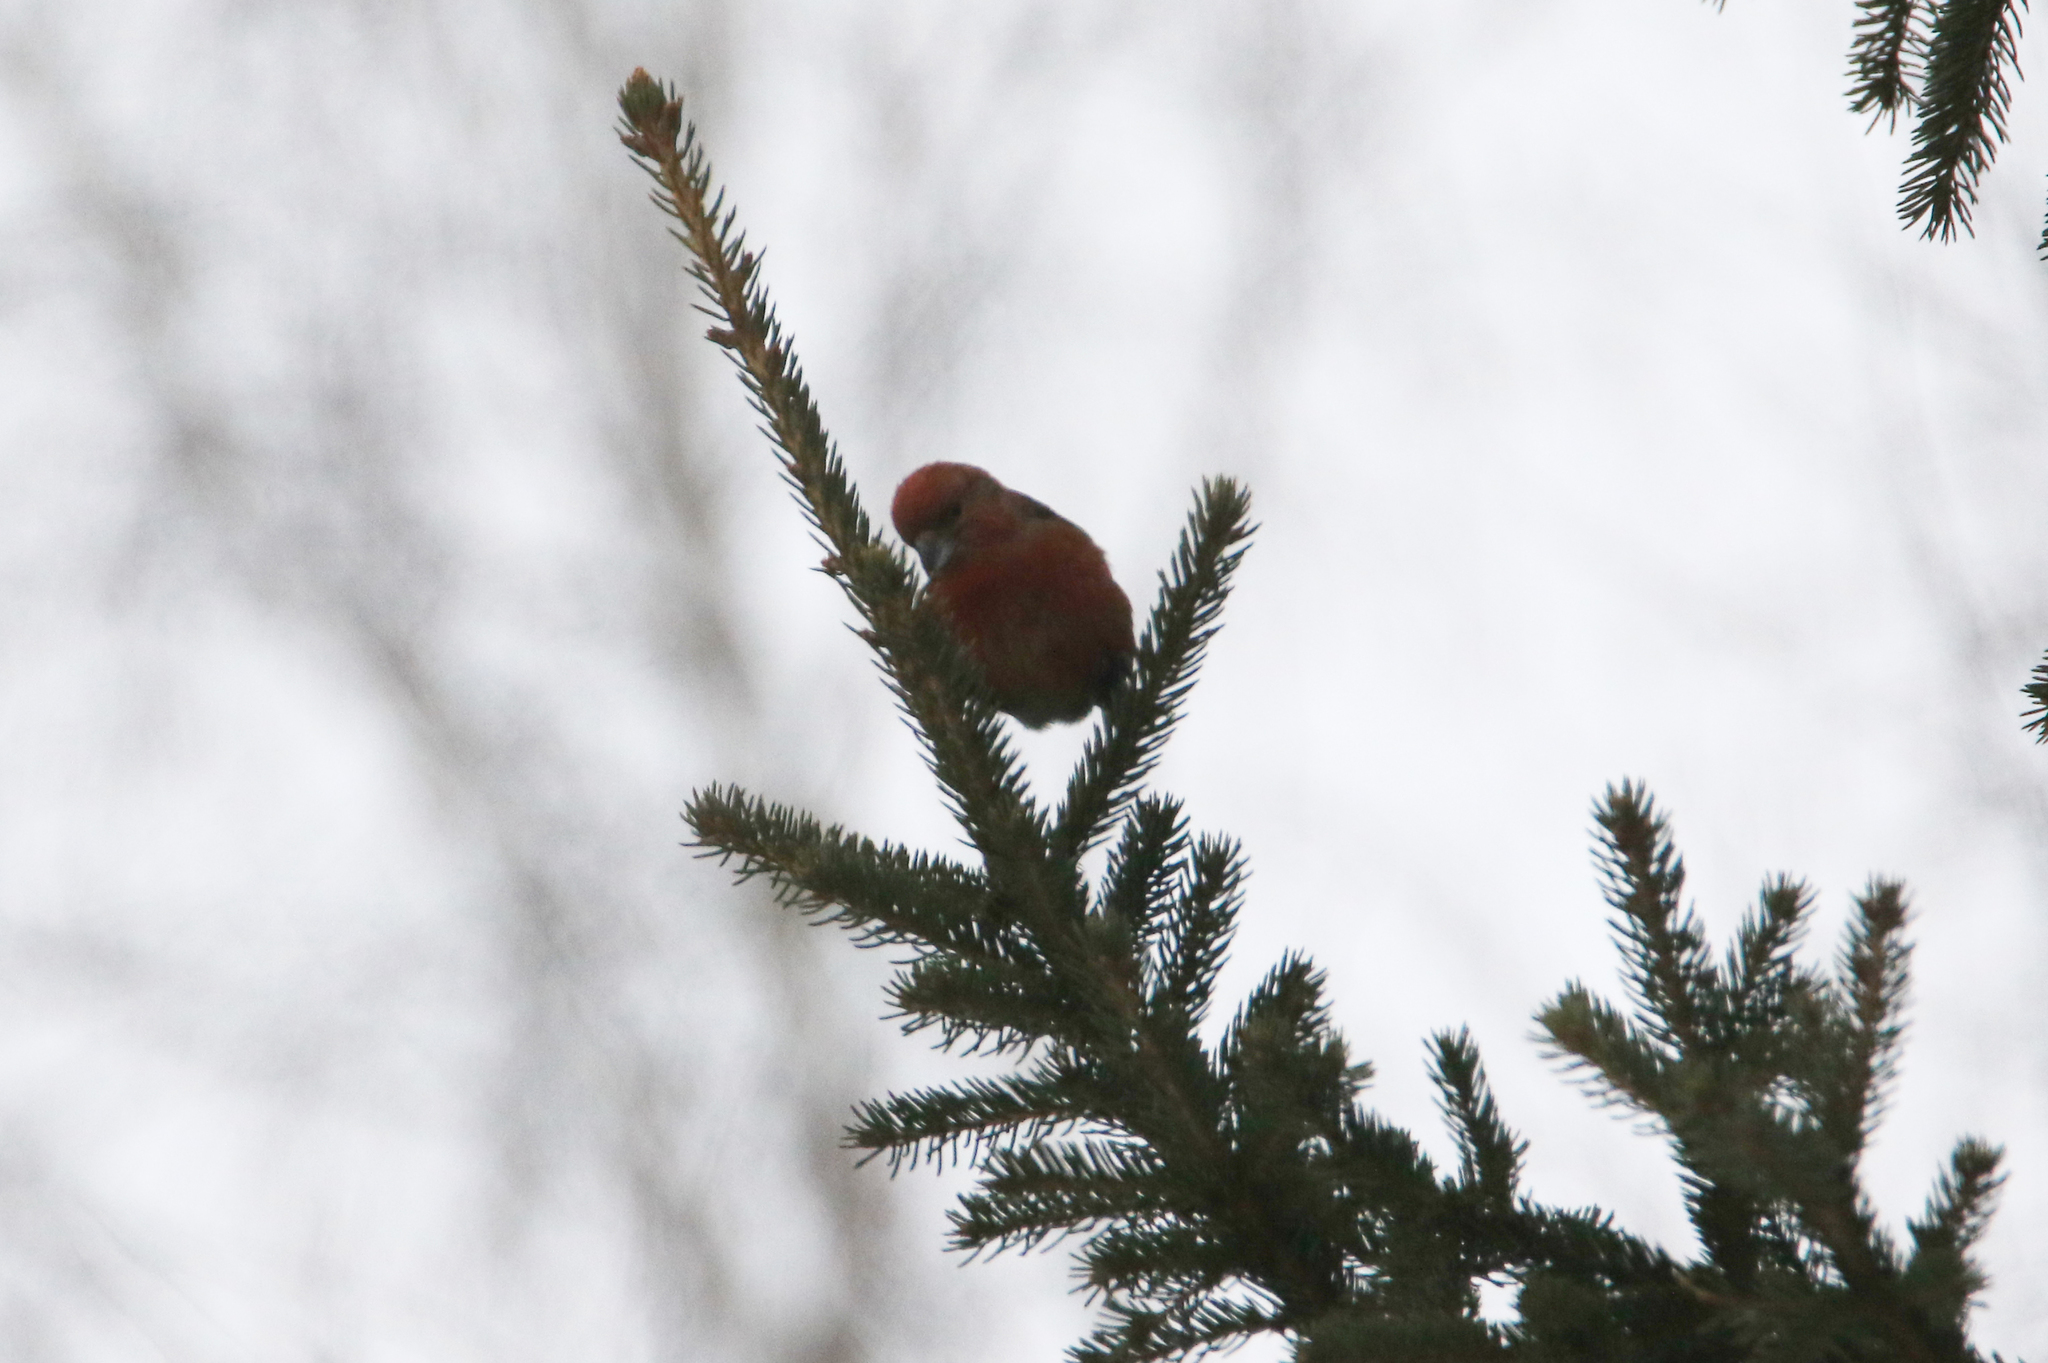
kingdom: Animalia
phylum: Chordata
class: Aves
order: Passeriformes
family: Fringillidae
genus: Loxia
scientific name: Loxia curvirostra
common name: Red crossbill
